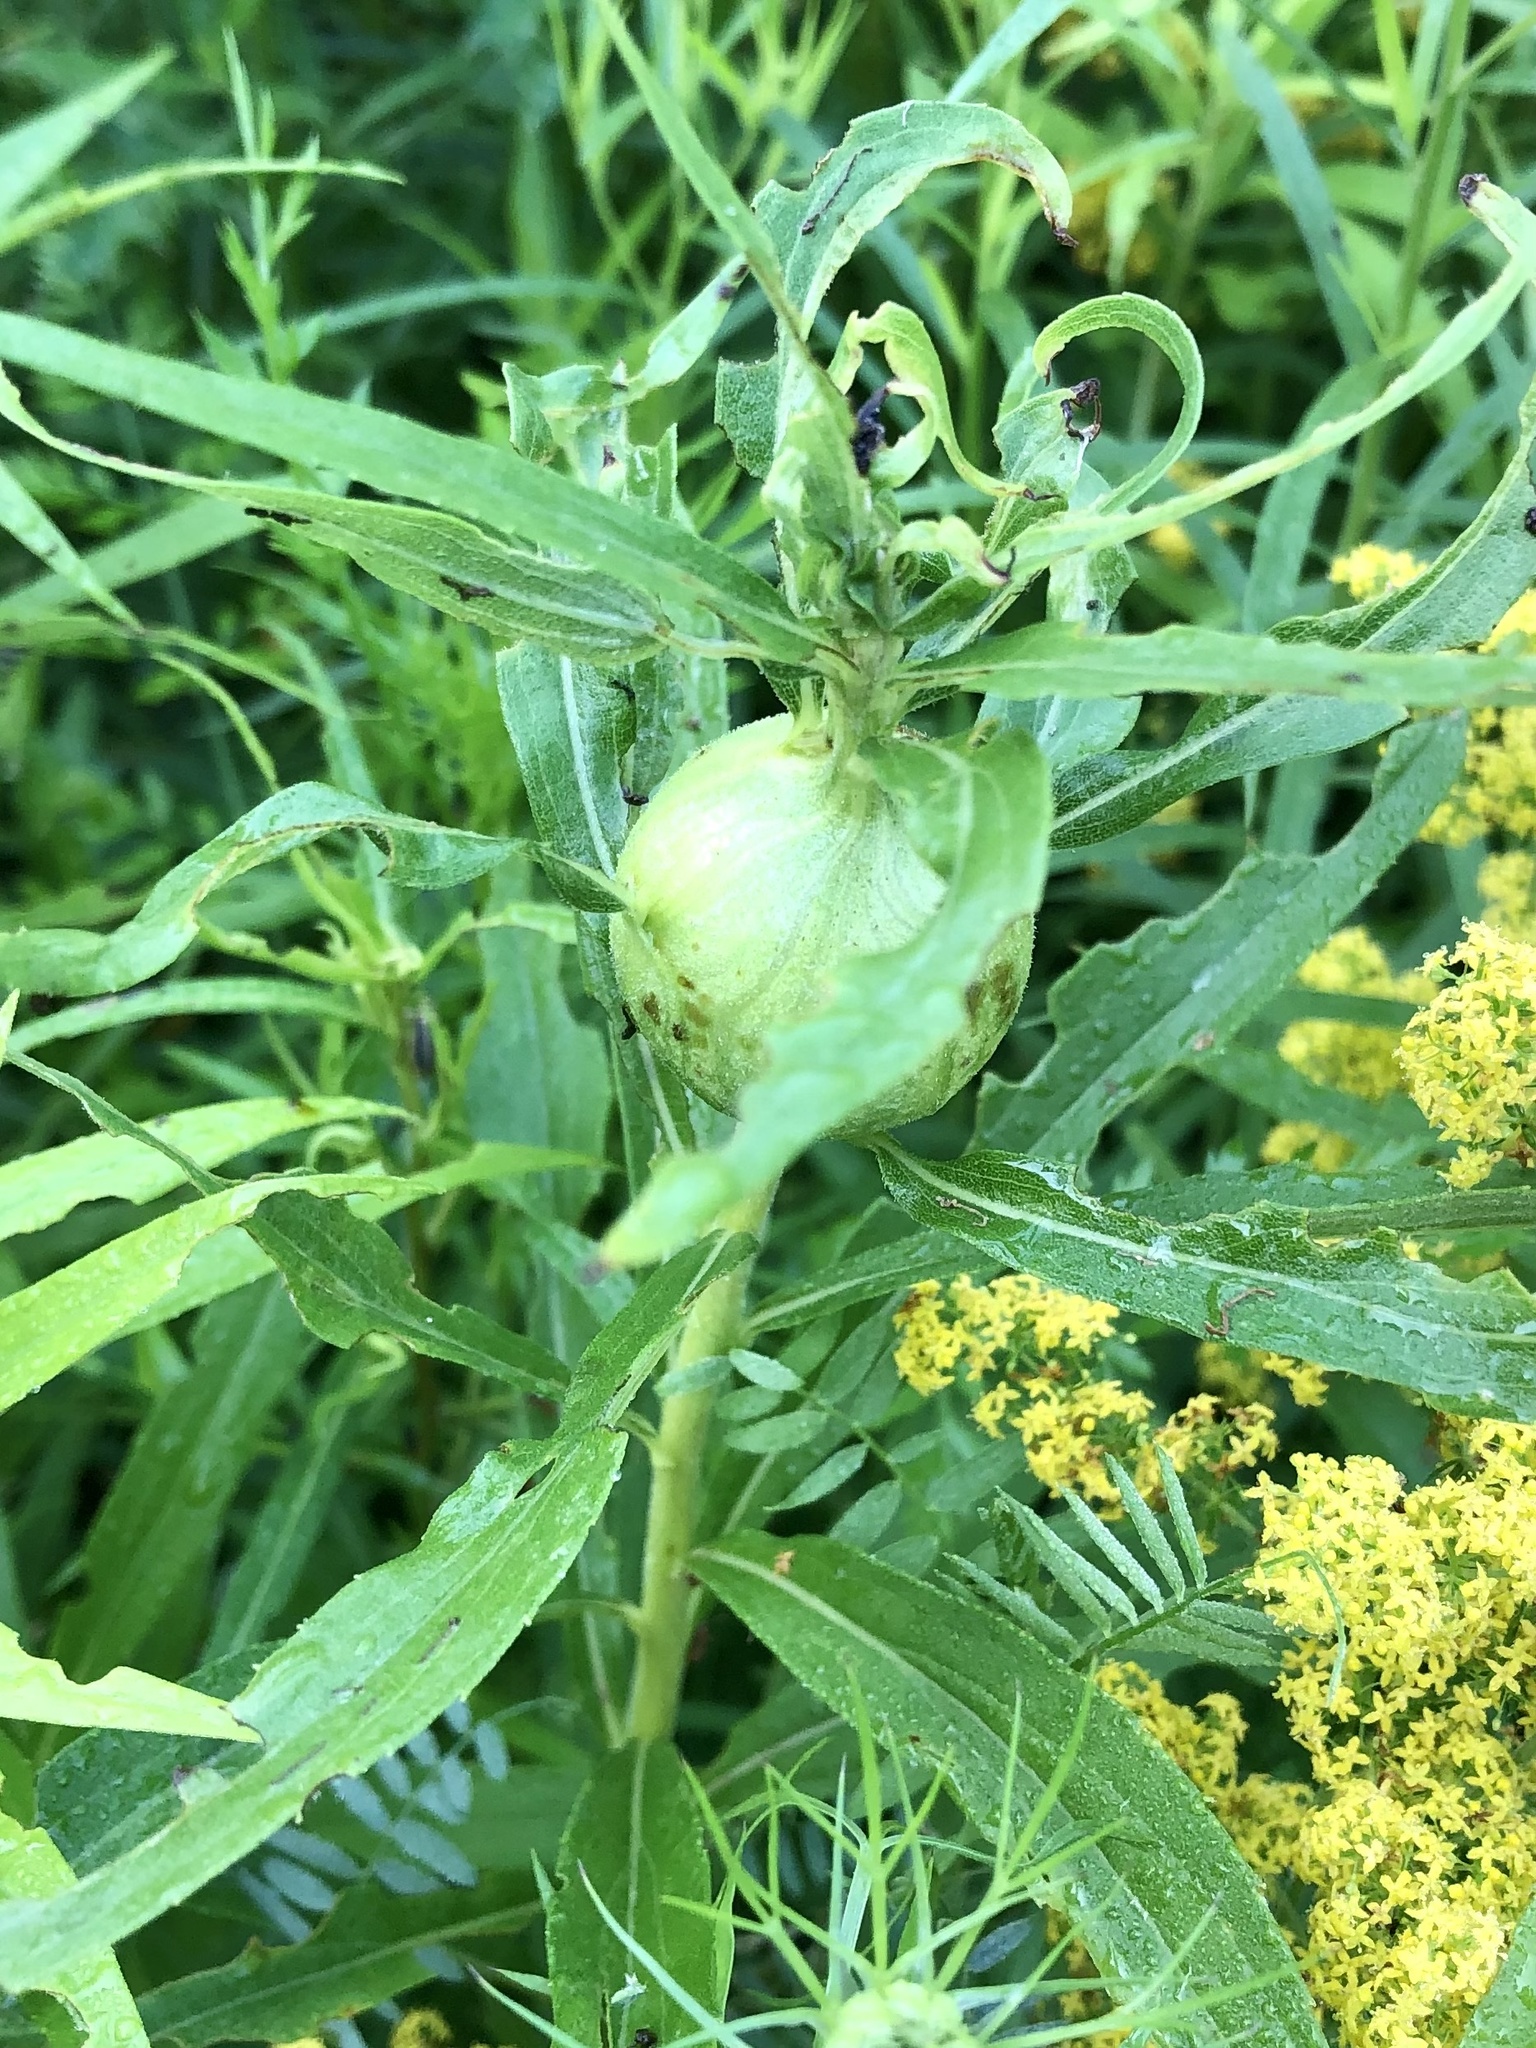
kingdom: Animalia
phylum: Arthropoda
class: Insecta
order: Diptera
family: Tephritidae
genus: Eurosta
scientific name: Eurosta solidaginis
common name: Goldenrod gall fly
